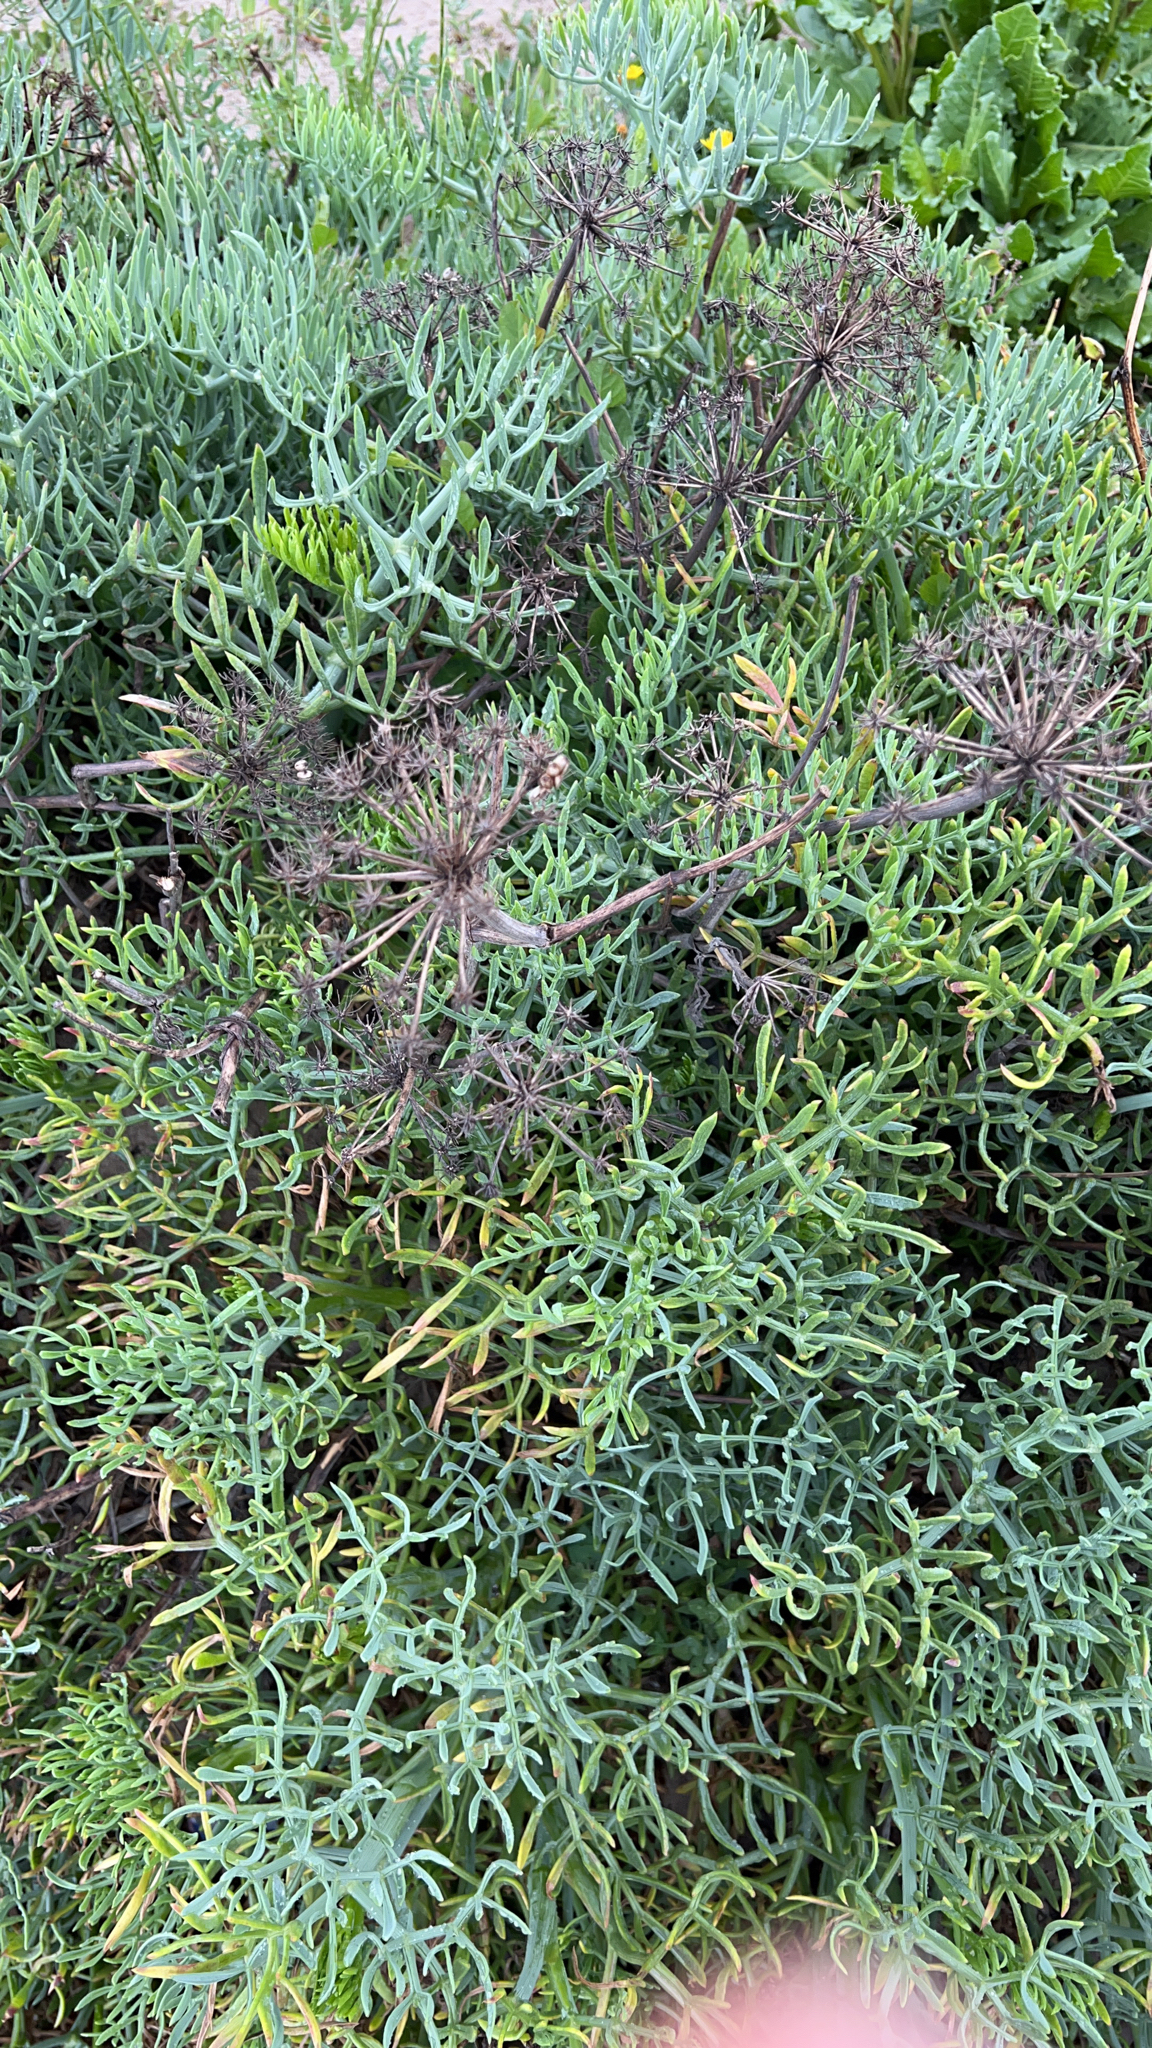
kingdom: Plantae
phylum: Tracheophyta
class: Magnoliopsida
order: Apiales
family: Apiaceae
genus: Crithmum
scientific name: Crithmum maritimum
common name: Rock samphire
